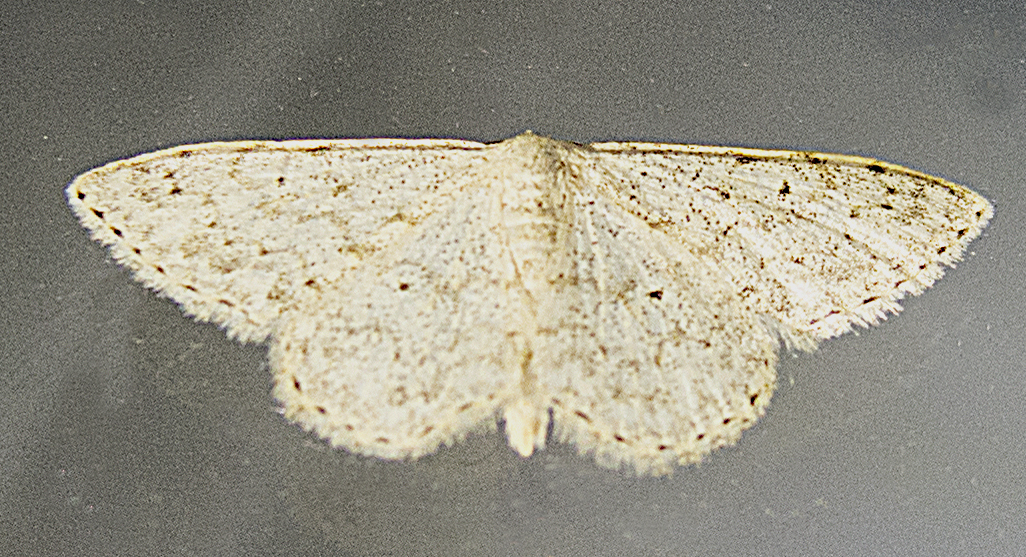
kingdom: Animalia
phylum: Arthropoda
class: Insecta
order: Lepidoptera
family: Geometridae
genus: Scopula
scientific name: Scopula marginepunctata
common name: Mullein wave
